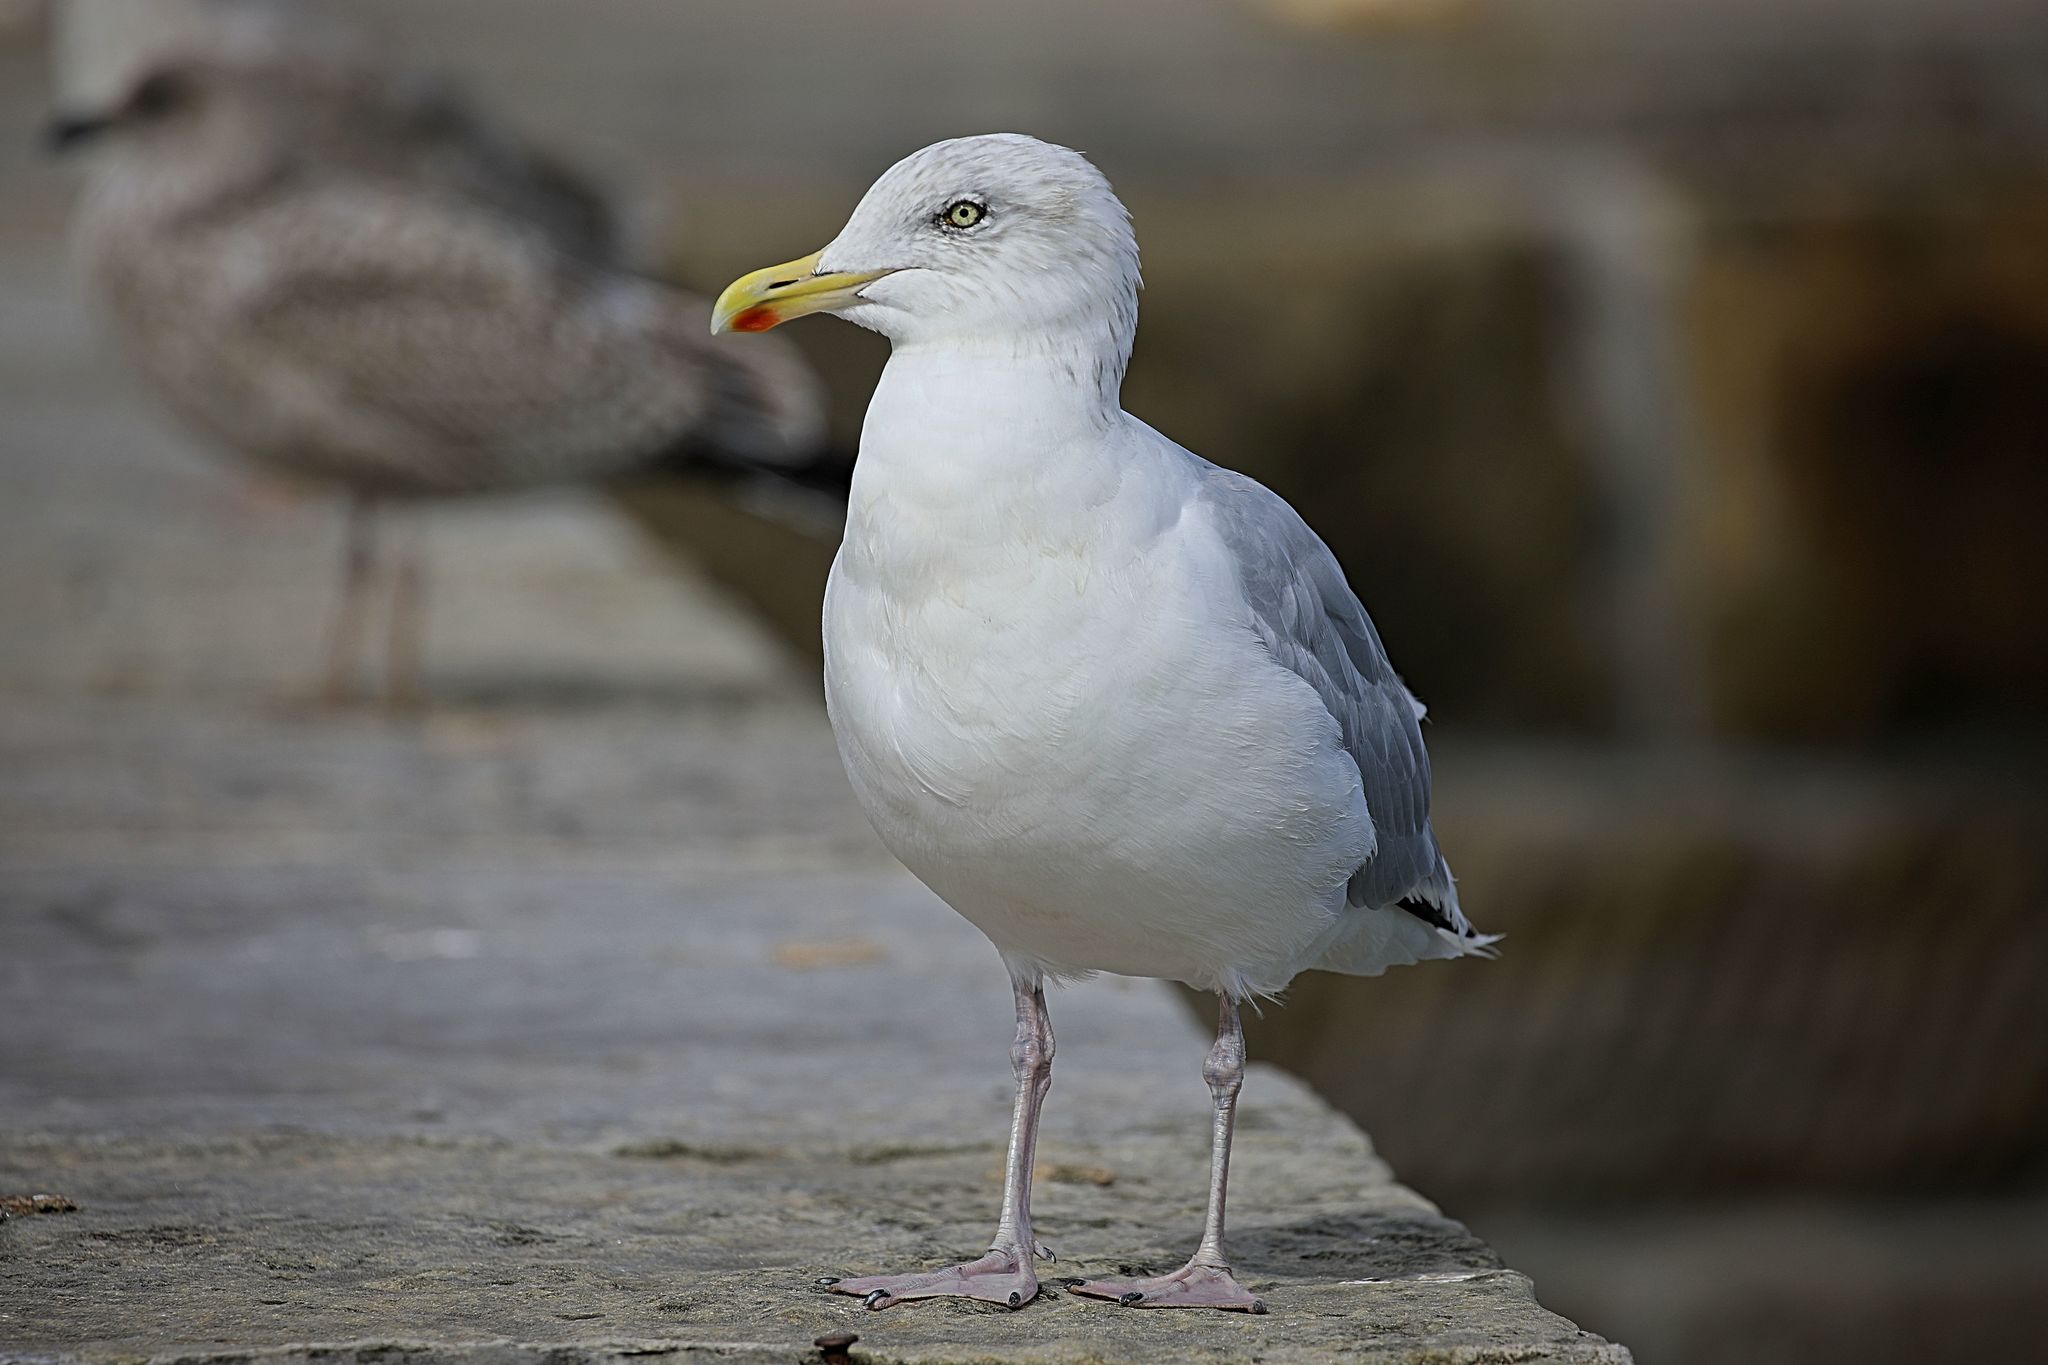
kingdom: Animalia
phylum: Chordata
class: Aves
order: Charadriiformes
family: Laridae
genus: Larus
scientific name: Larus argentatus
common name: Herring gull
